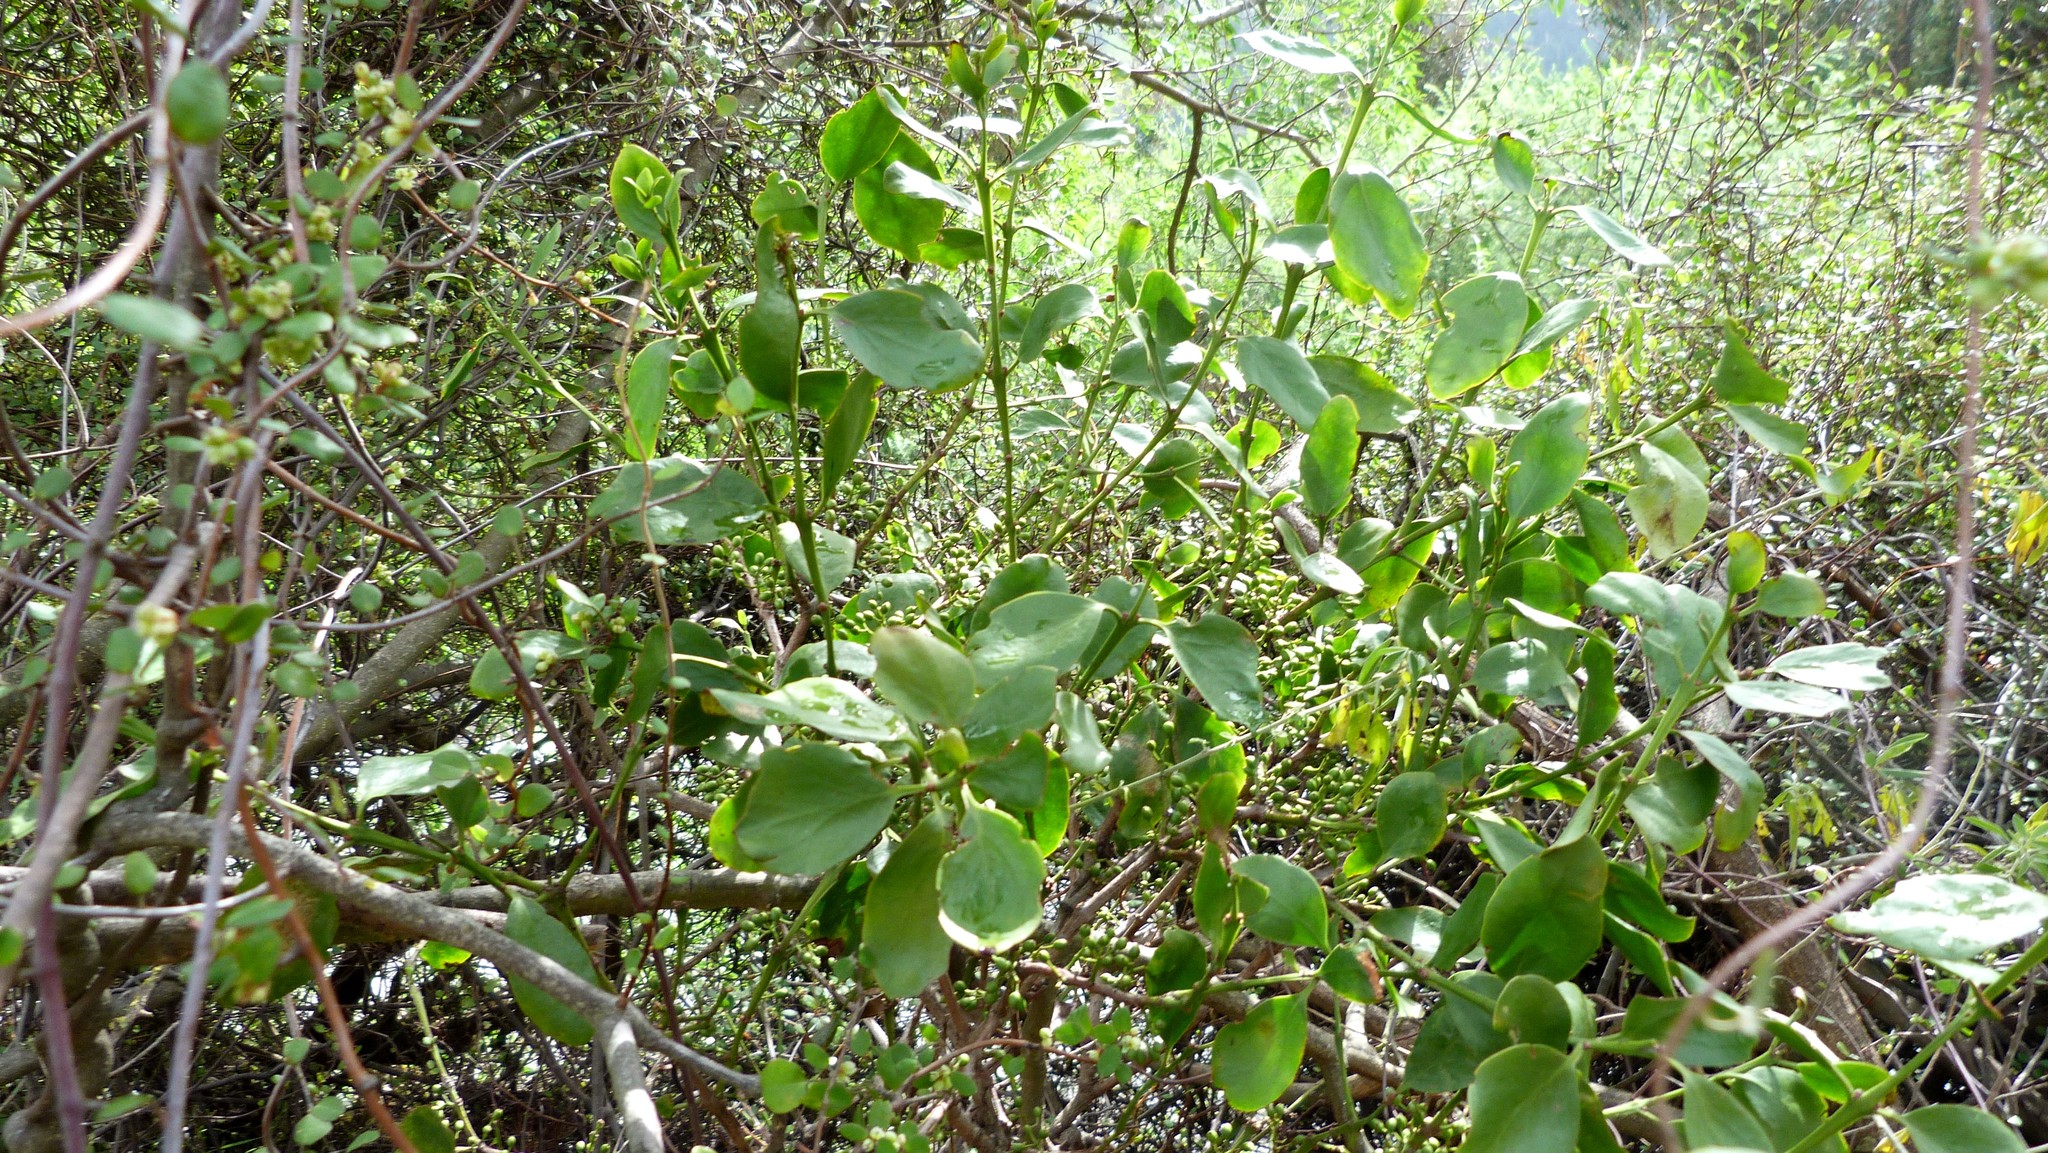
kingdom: Plantae
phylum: Tracheophyta
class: Magnoliopsida
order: Santalales
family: Loranthaceae
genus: Ileostylus
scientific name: Ileostylus micranthus
